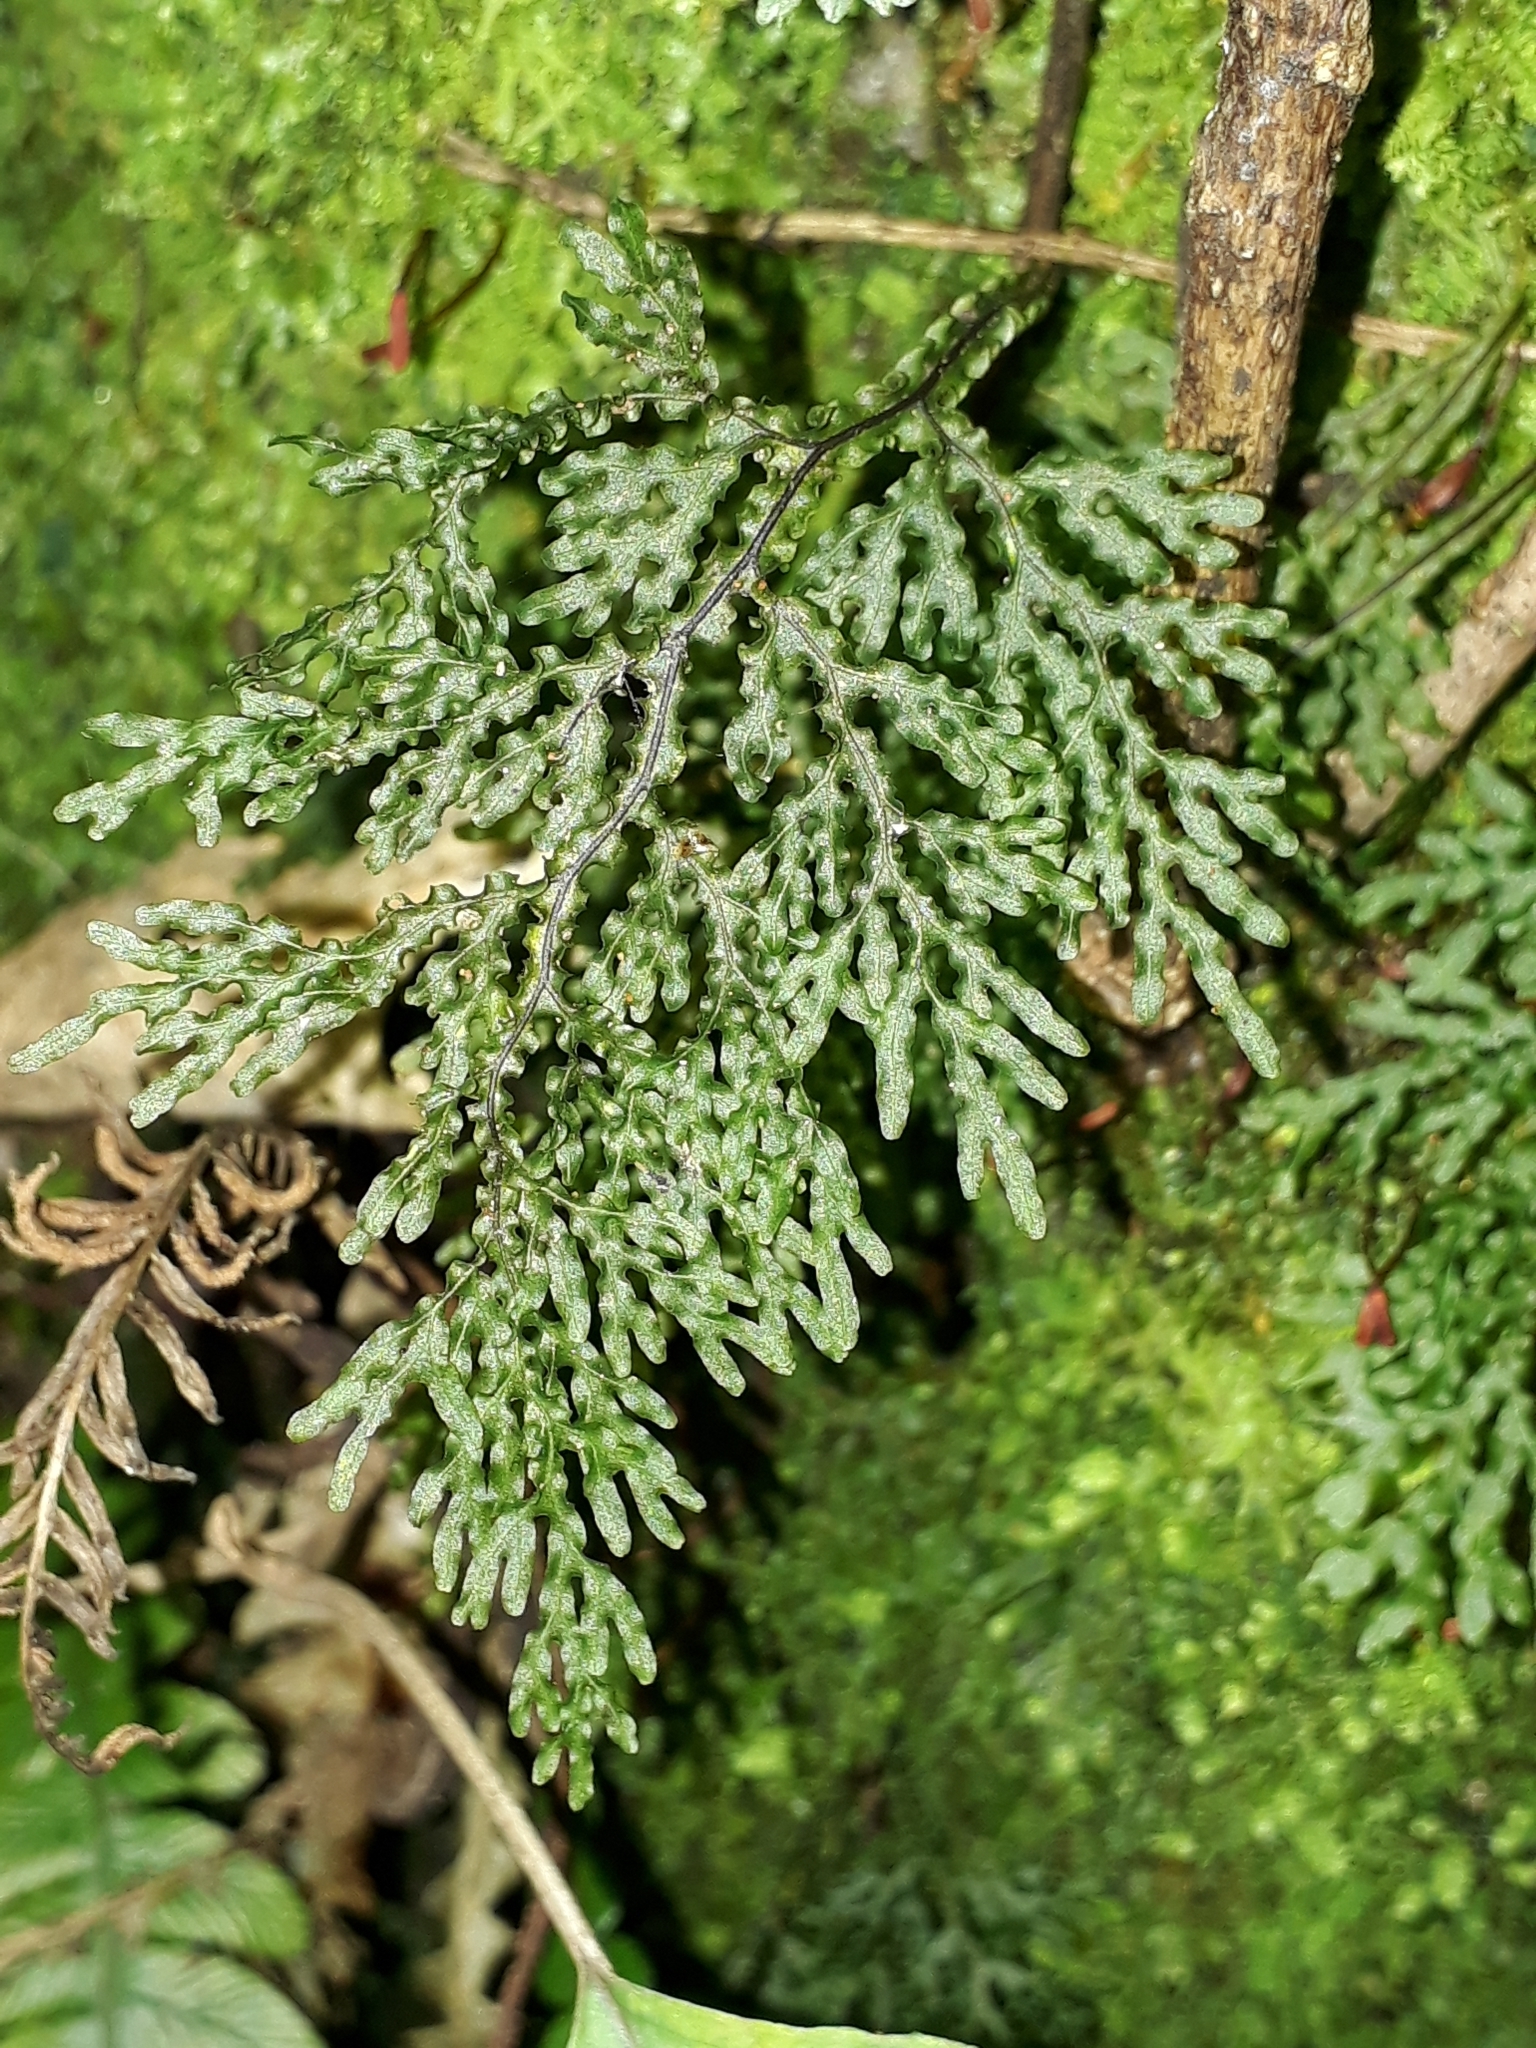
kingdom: Plantae
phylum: Tracheophyta
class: Polypodiopsida
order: Hymenophyllales
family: Hymenophyllaceae
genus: Hymenophyllum
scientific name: Hymenophyllum flexuosum
